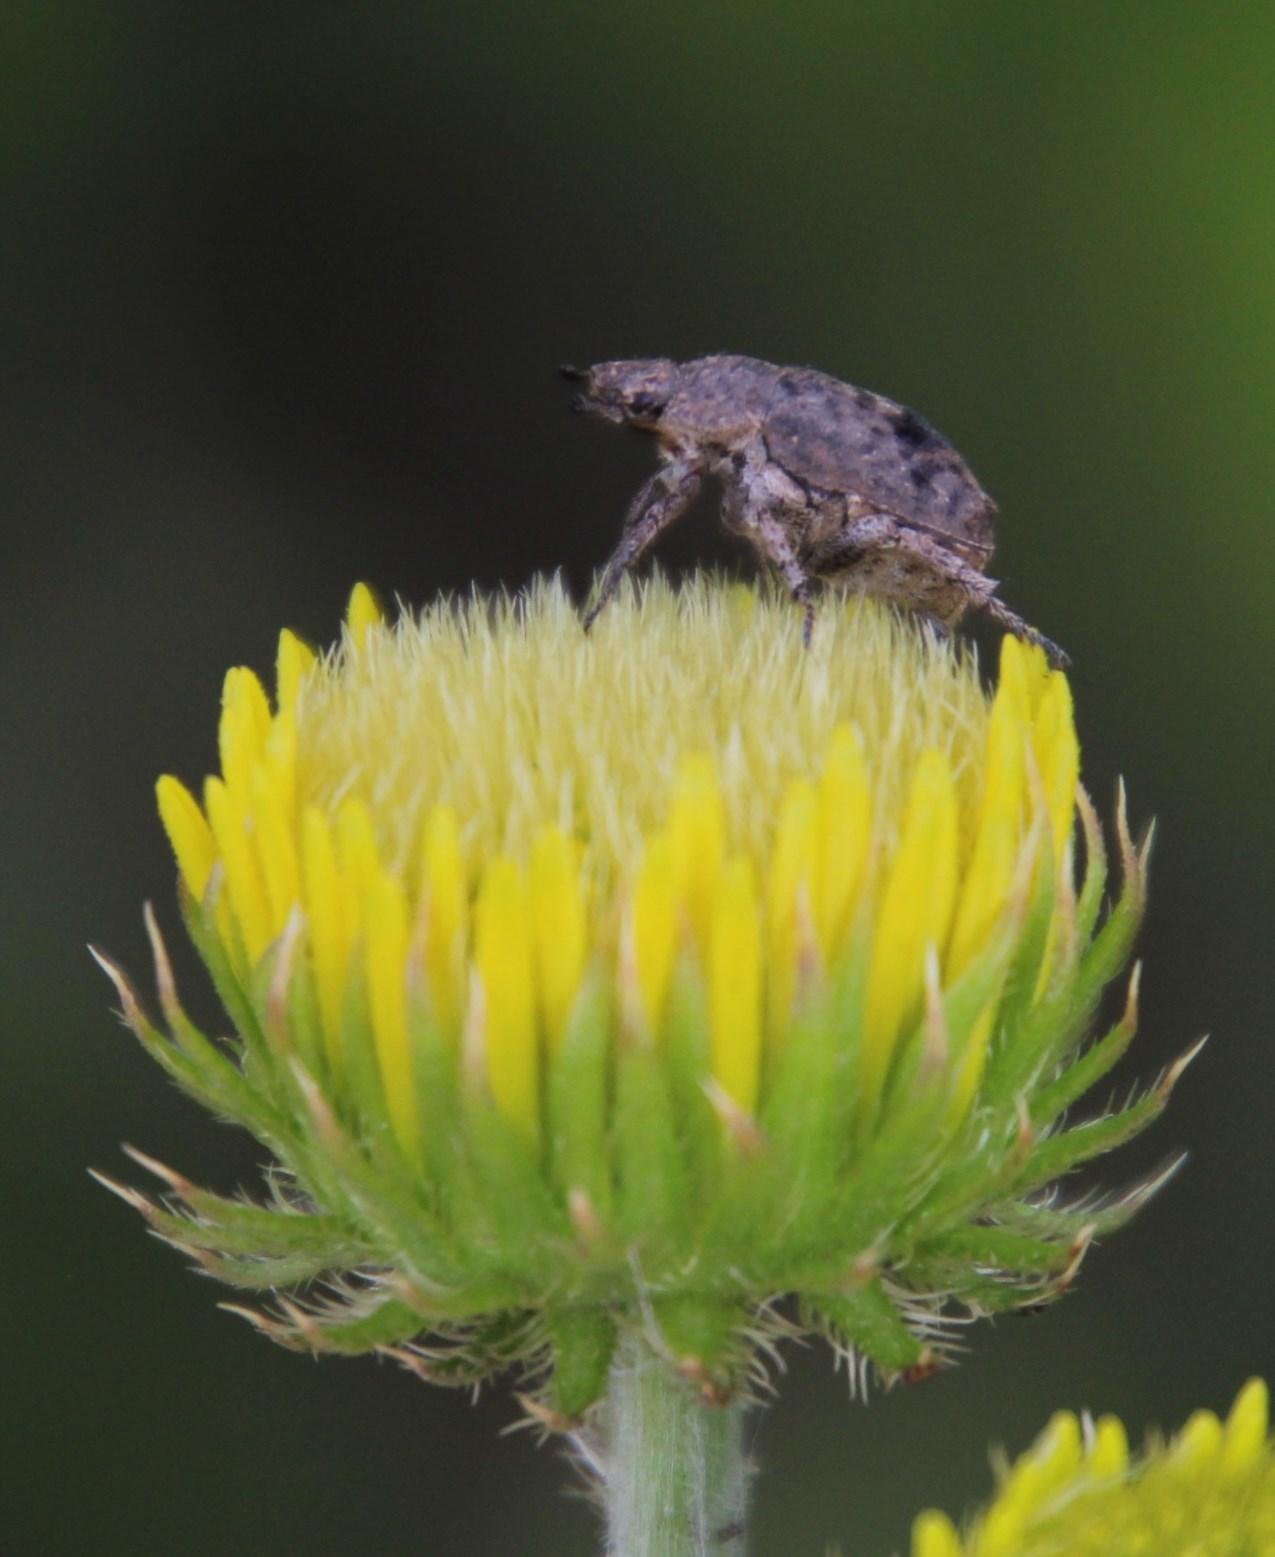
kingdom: Animalia
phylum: Arthropoda
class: Insecta
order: Coleoptera
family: Scarabaeidae
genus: Hoplia
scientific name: Hoplia sordida
